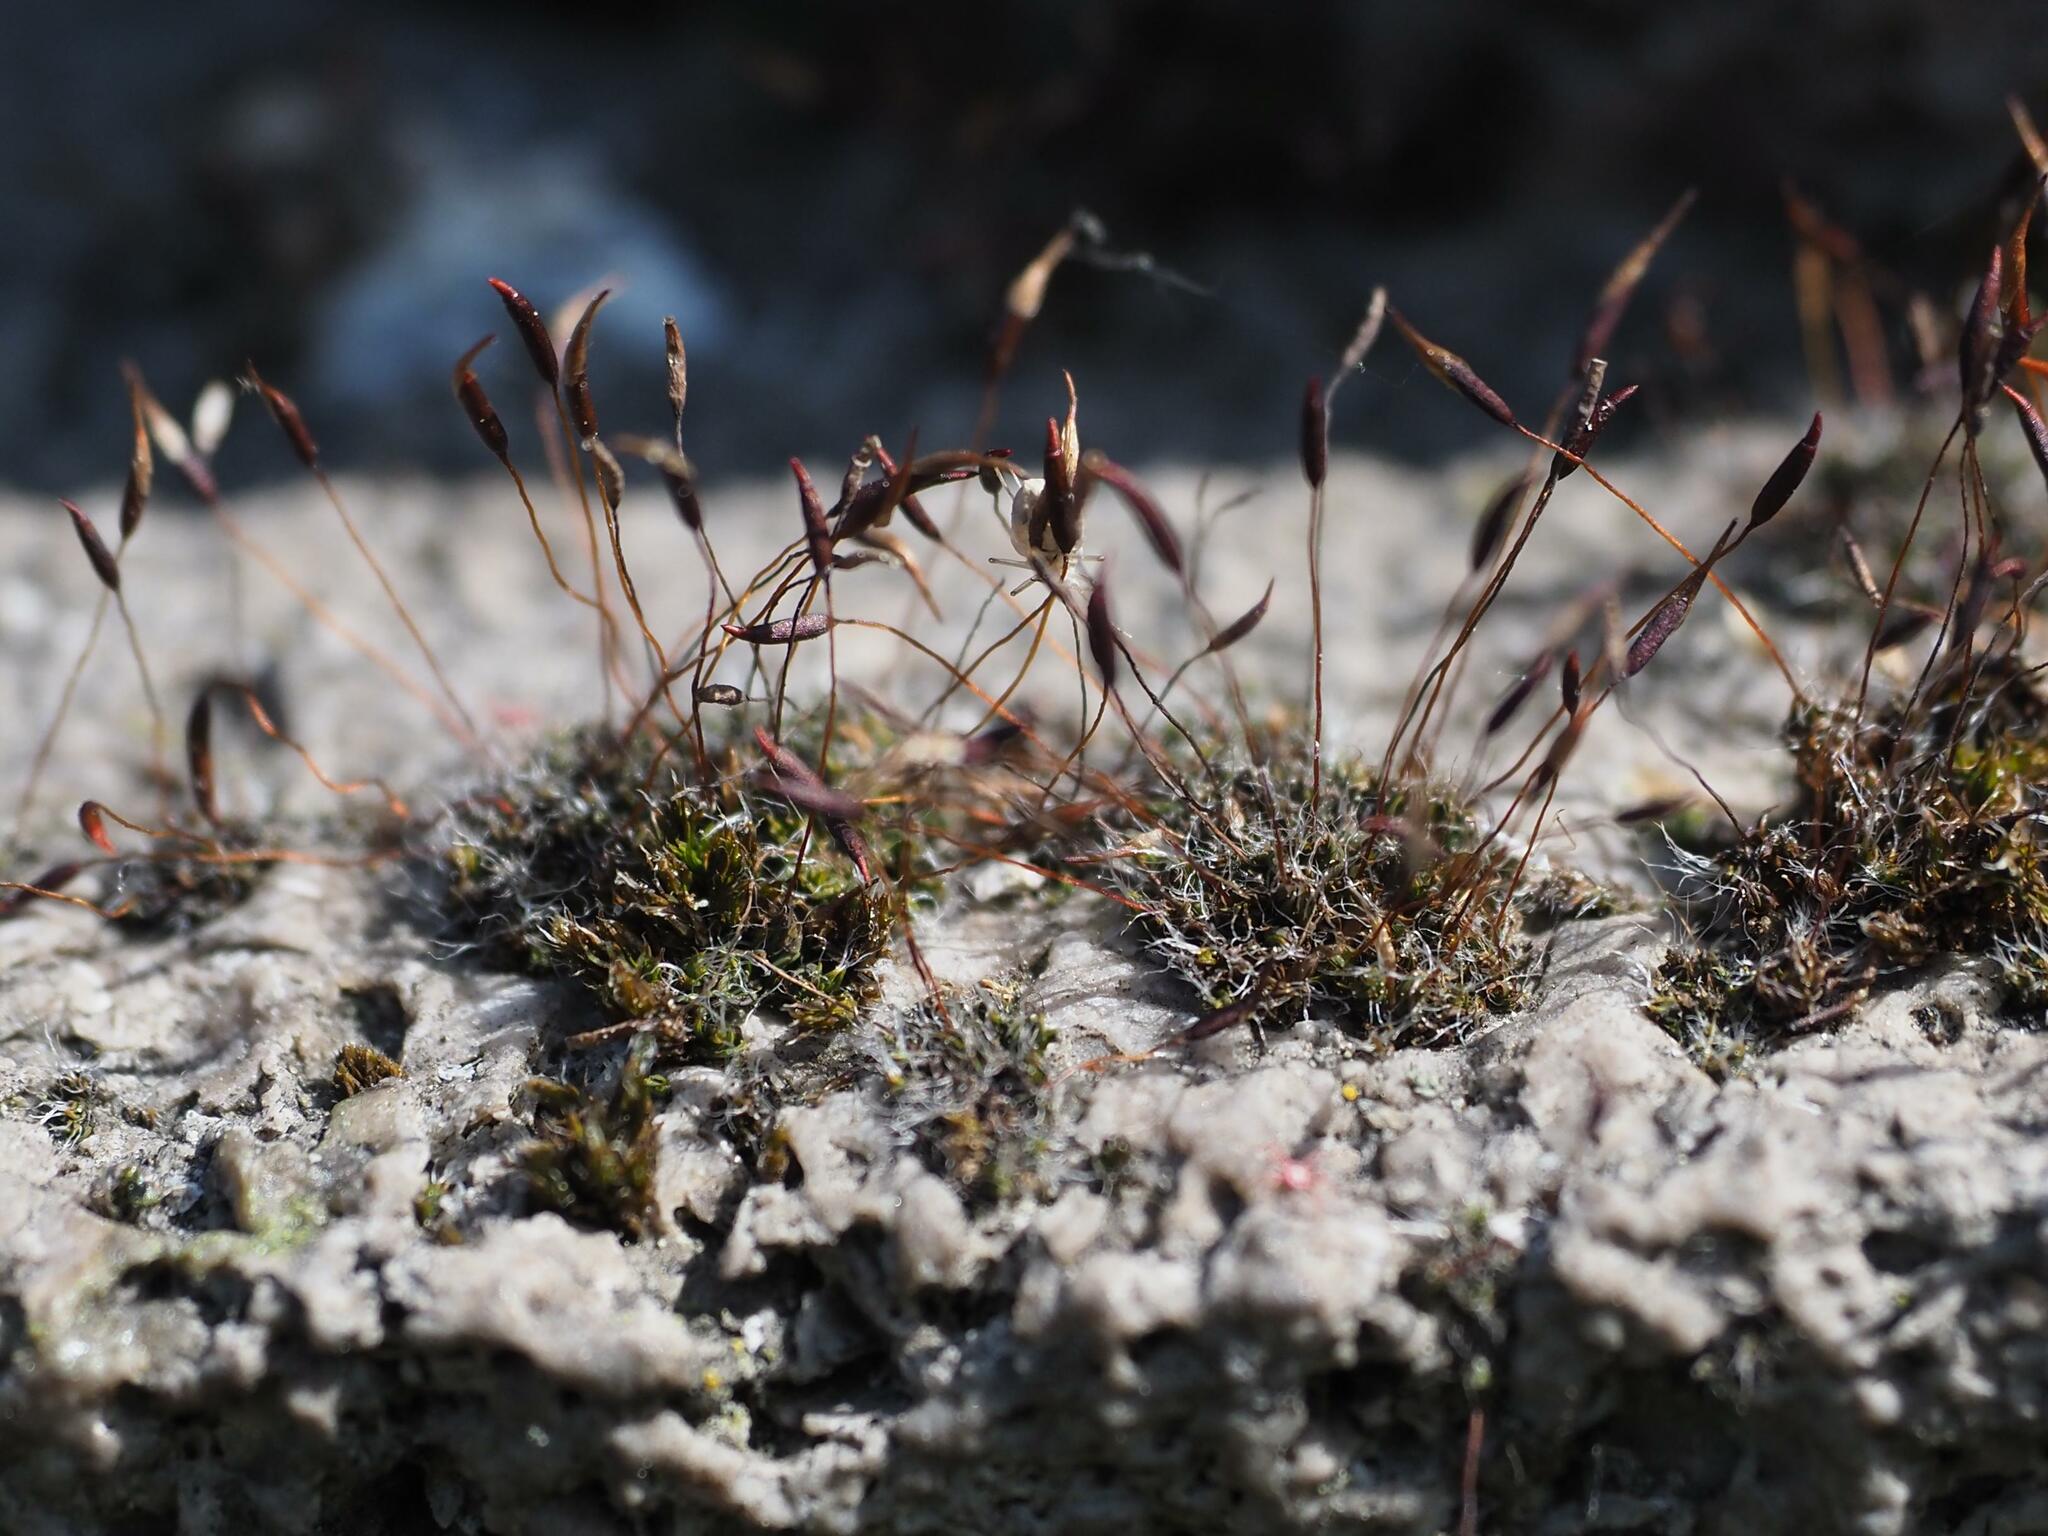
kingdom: Plantae
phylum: Bryophyta
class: Bryopsida
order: Pottiales
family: Pottiaceae
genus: Tortula
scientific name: Tortula muralis
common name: Wall screw-moss
